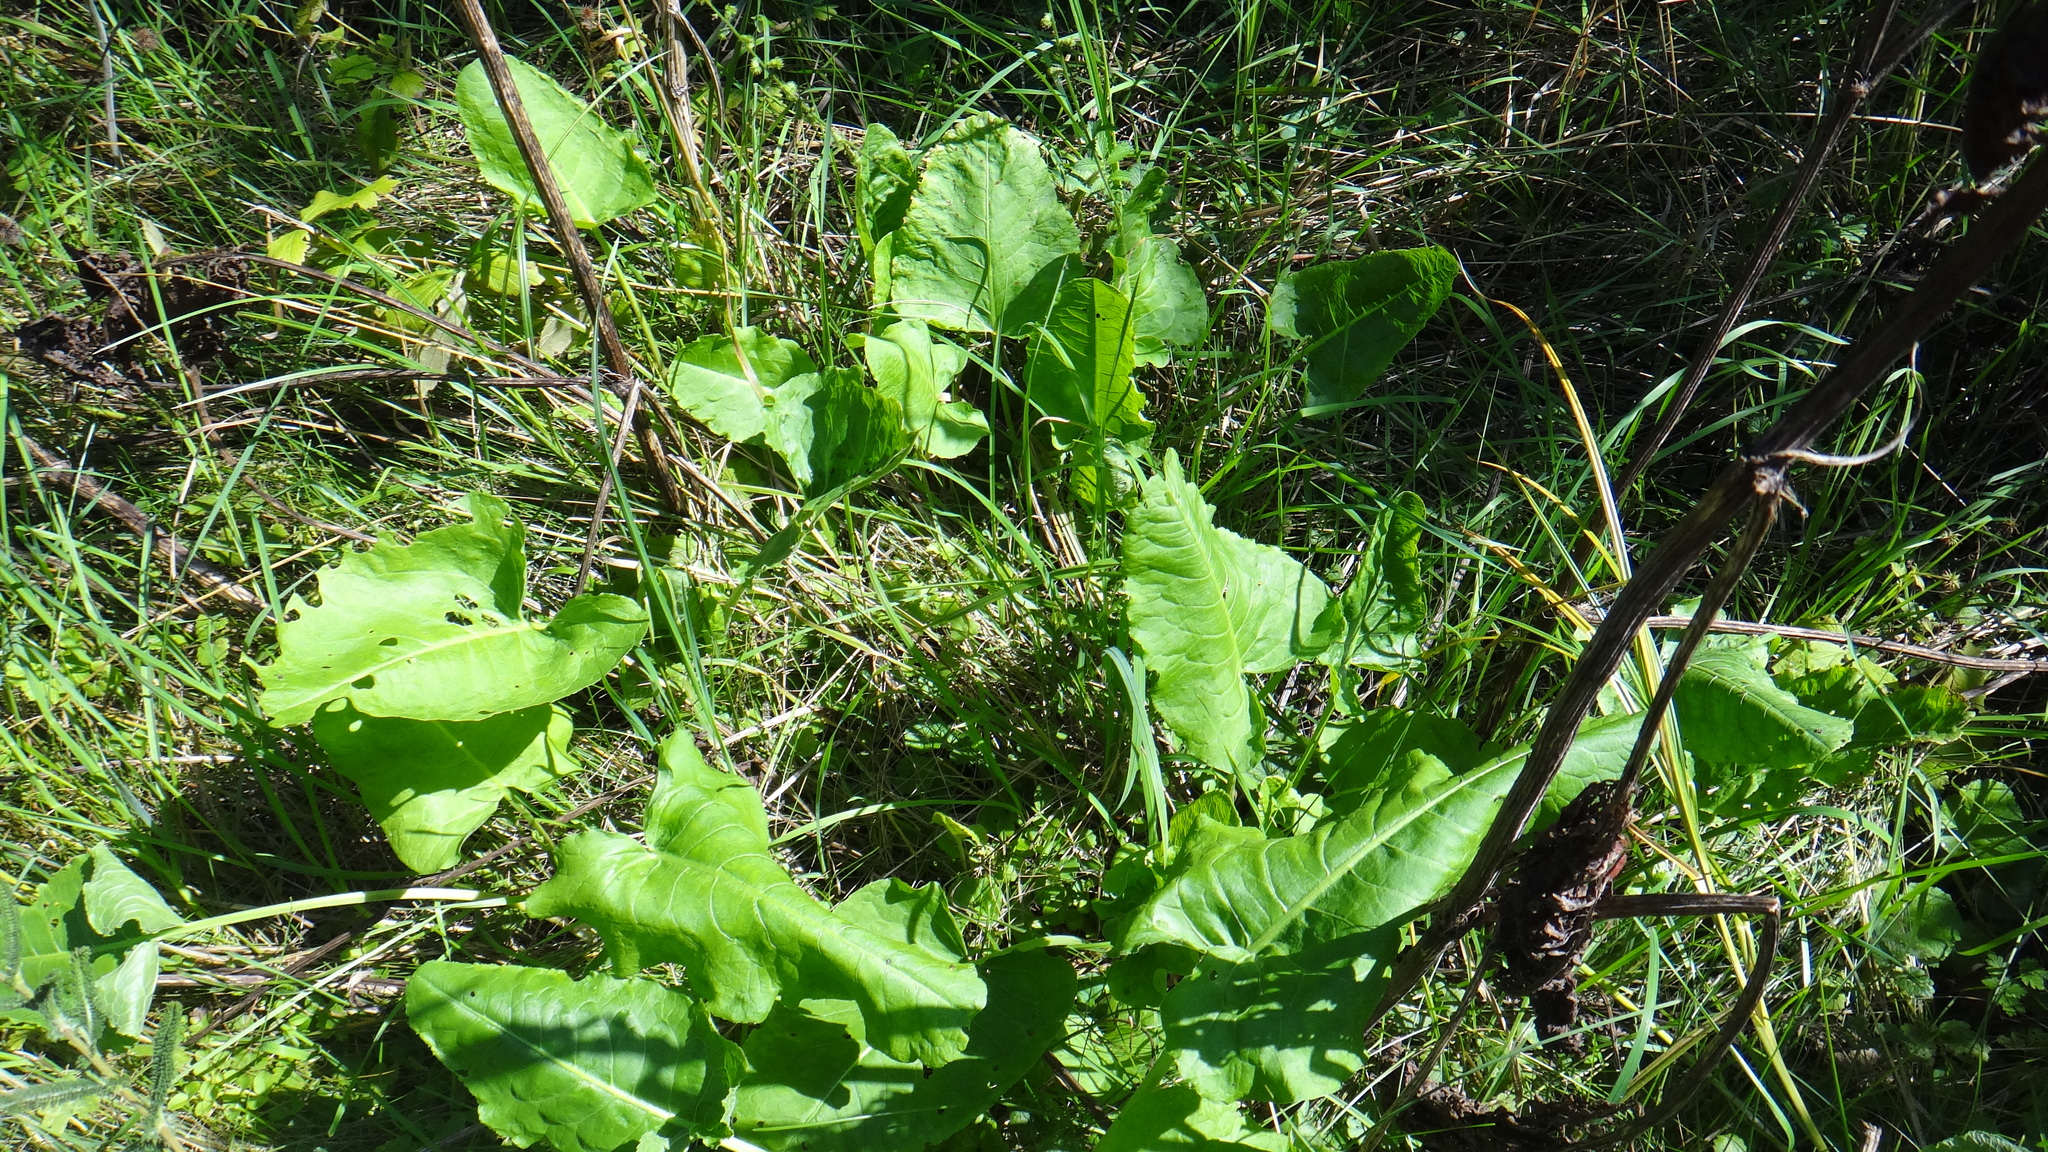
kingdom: Plantae
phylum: Tracheophyta
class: Magnoliopsida
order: Caryophyllales
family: Polygonaceae
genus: Rumex
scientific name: Rumex confertus
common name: Russian dock
